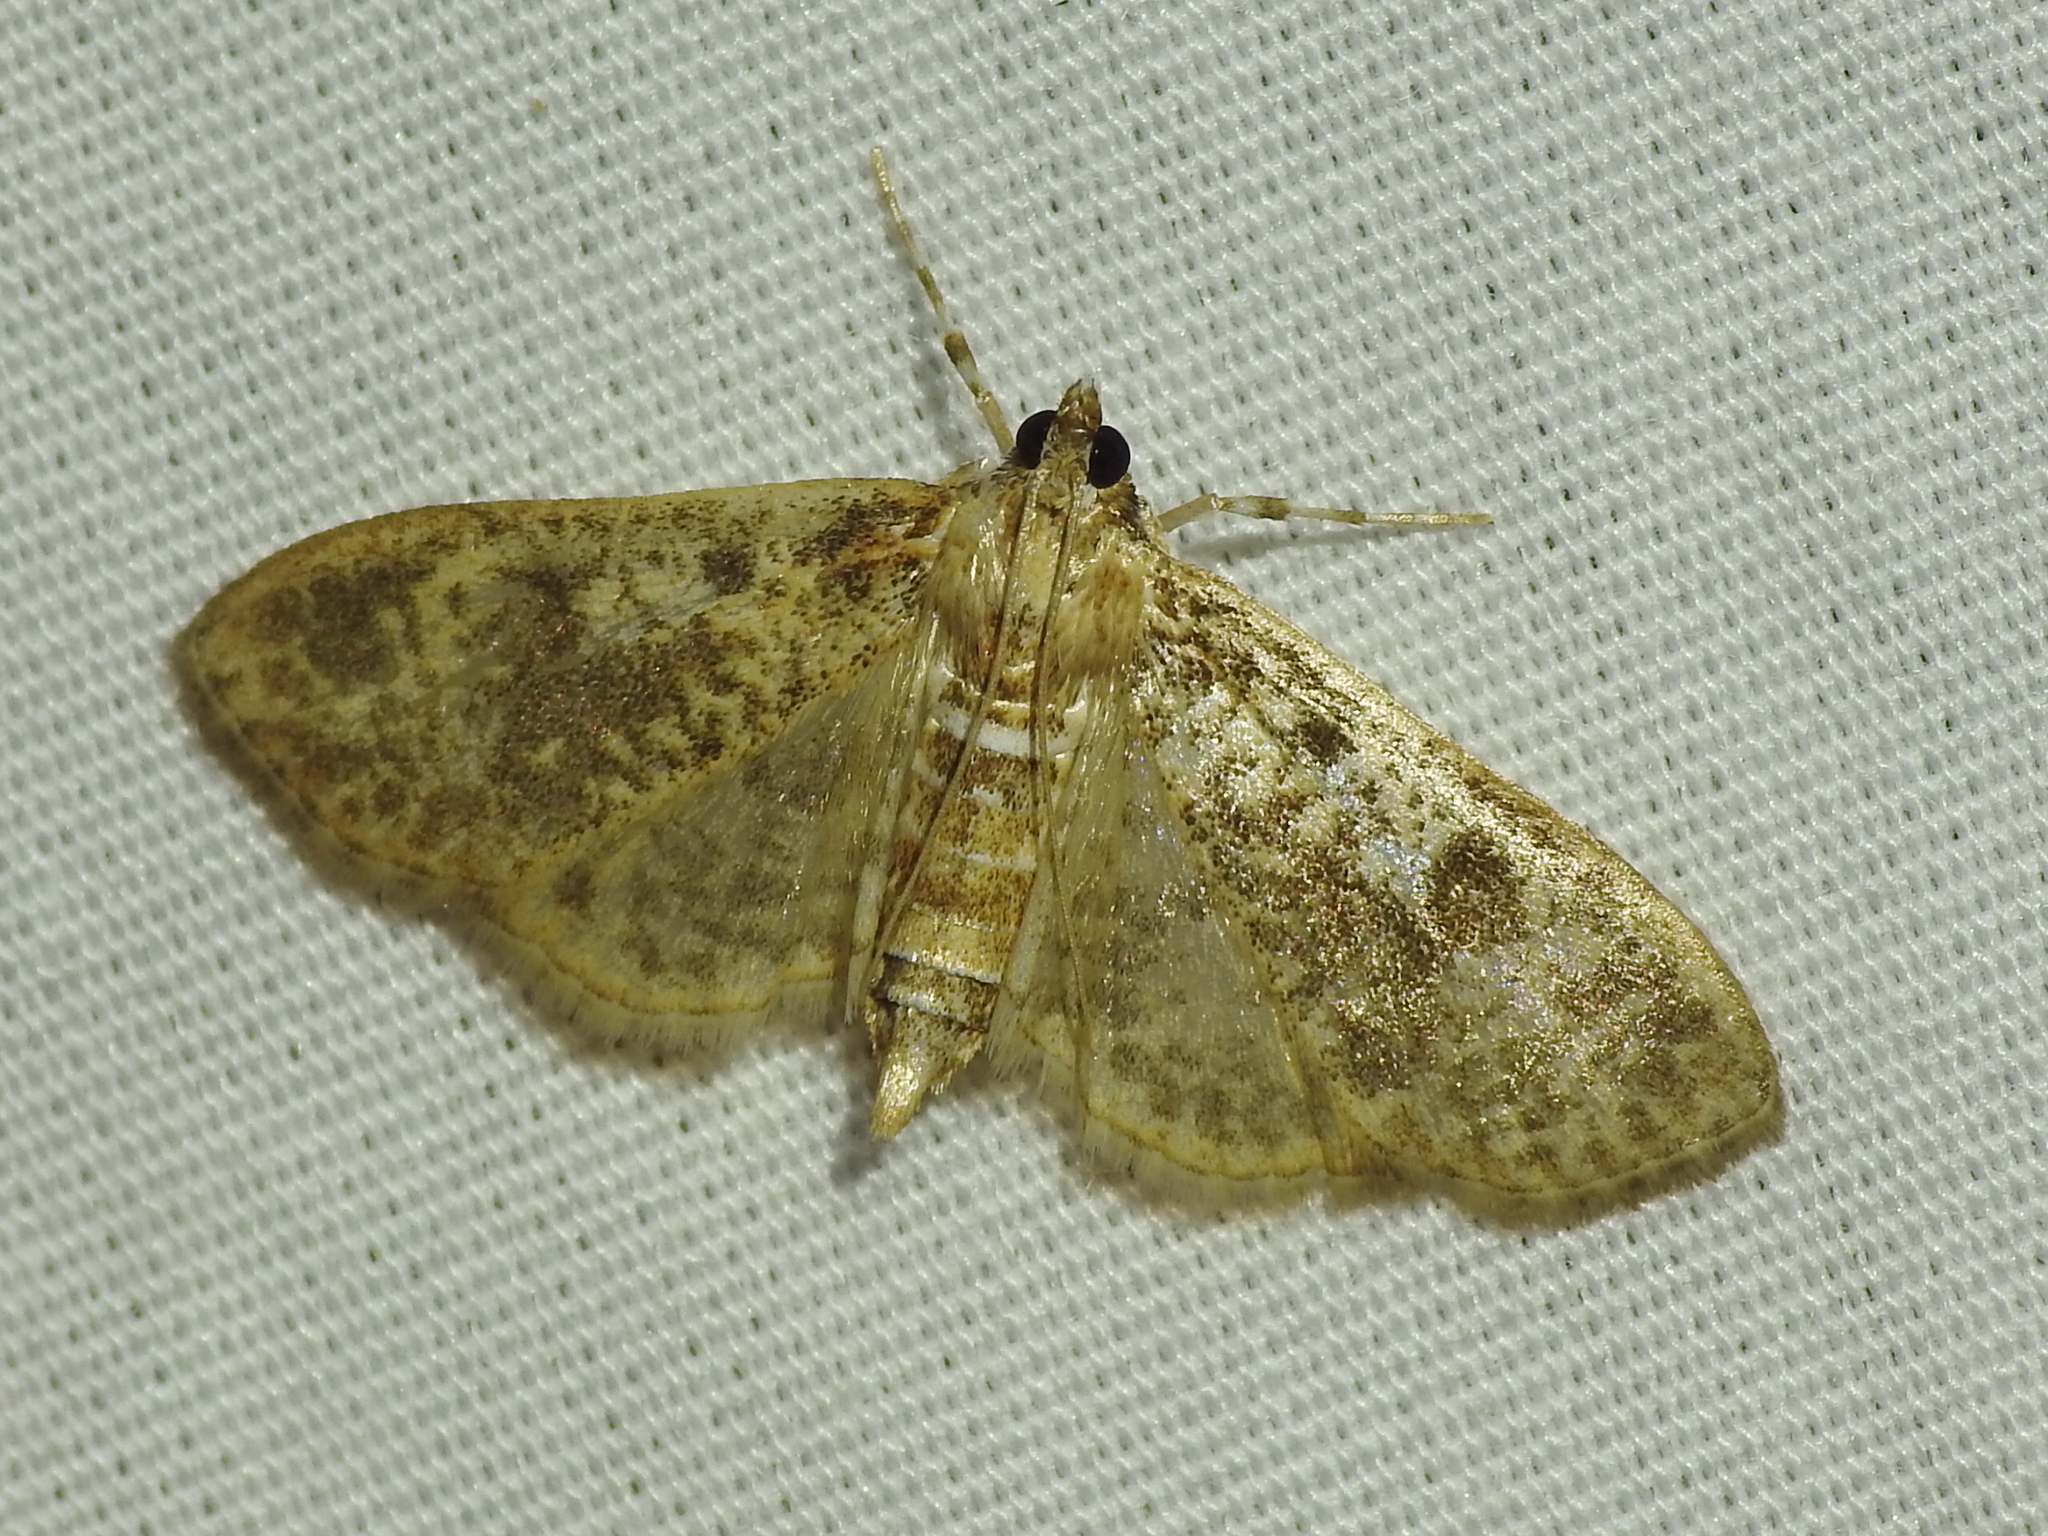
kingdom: Animalia
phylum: Arthropoda
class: Insecta
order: Lepidoptera
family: Crambidae
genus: Palpita
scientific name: Palpita freemanalis
